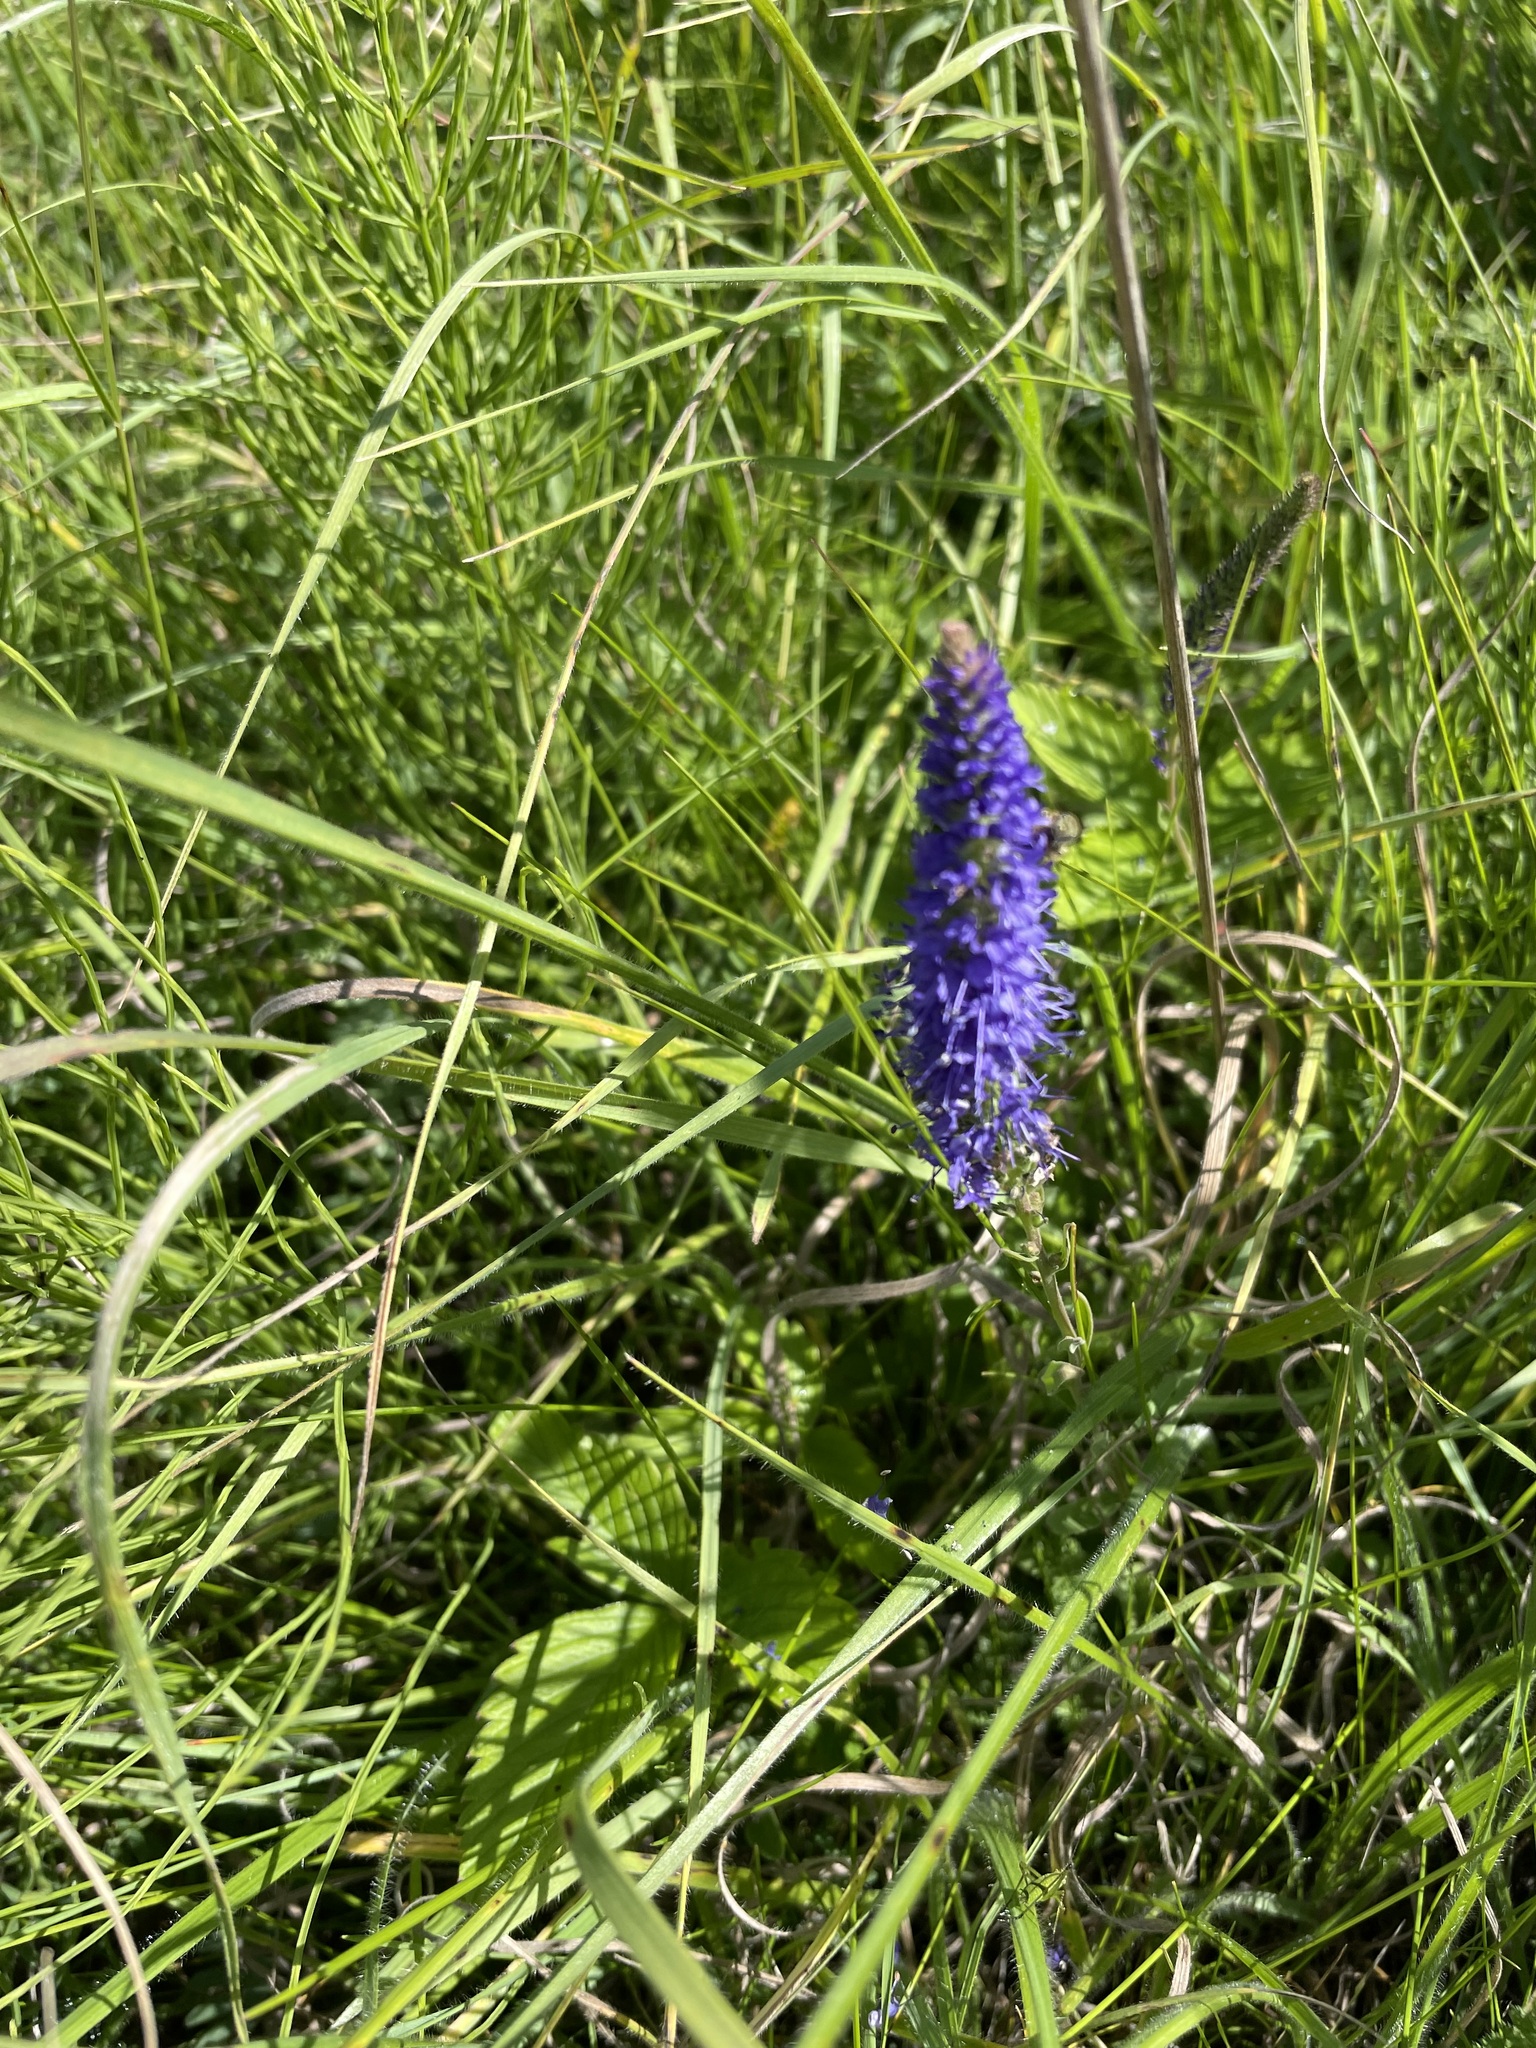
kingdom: Plantae
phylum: Tracheophyta
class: Magnoliopsida
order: Lamiales
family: Plantaginaceae
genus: Veronica
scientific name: Veronica spicata
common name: Spiked speedwell
